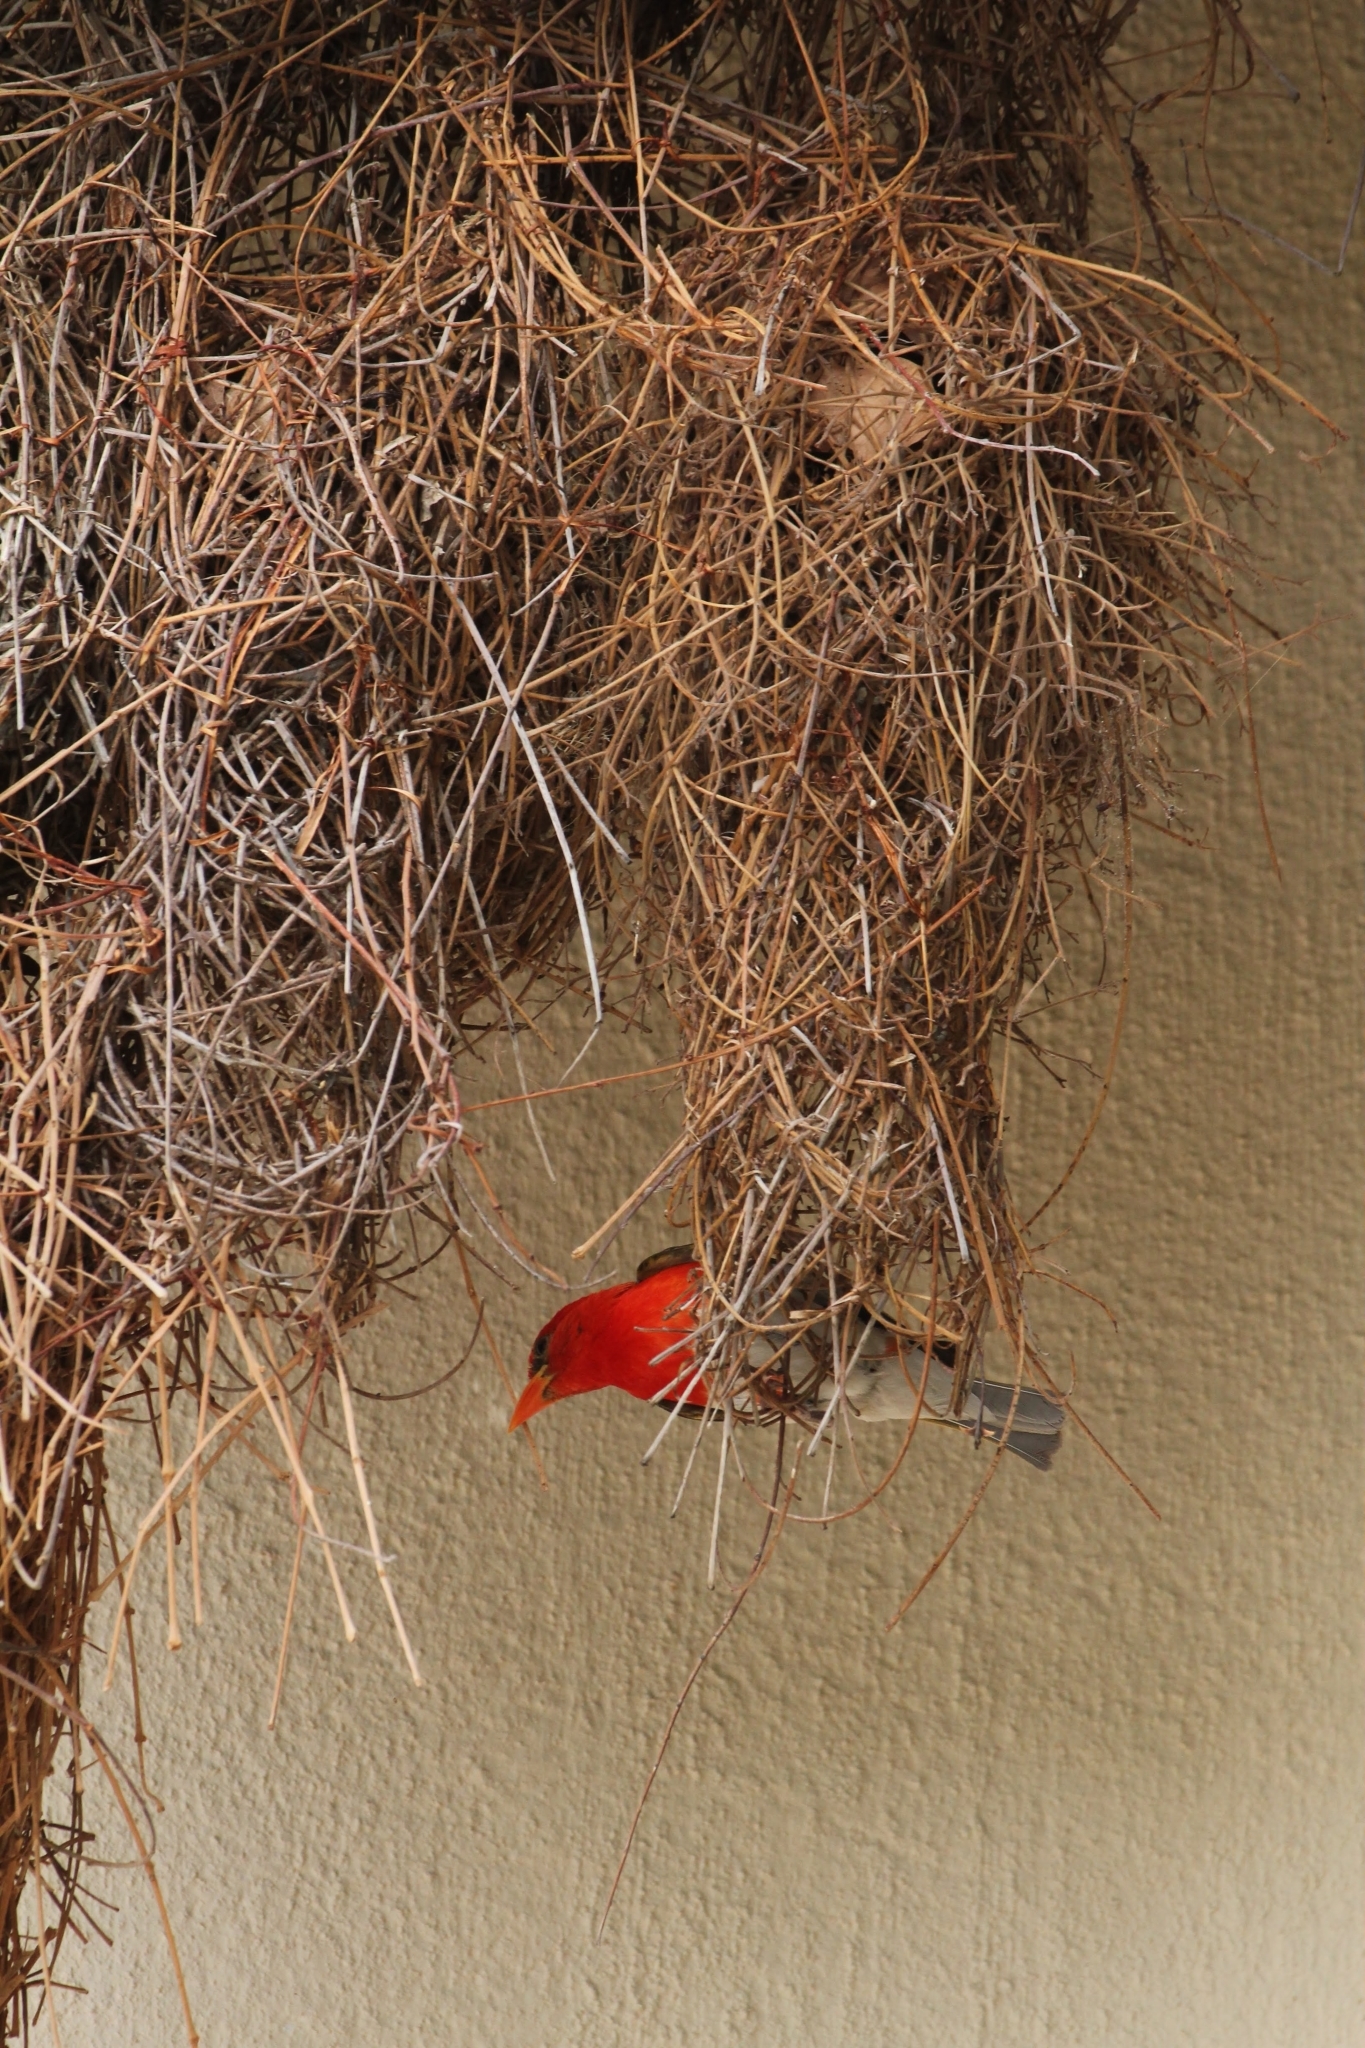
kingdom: Animalia
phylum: Chordata
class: Aves
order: Passeriformes
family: Ploceidae
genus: Anaplectes
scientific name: Anaplectes rubriceps
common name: Red-headed weaver
